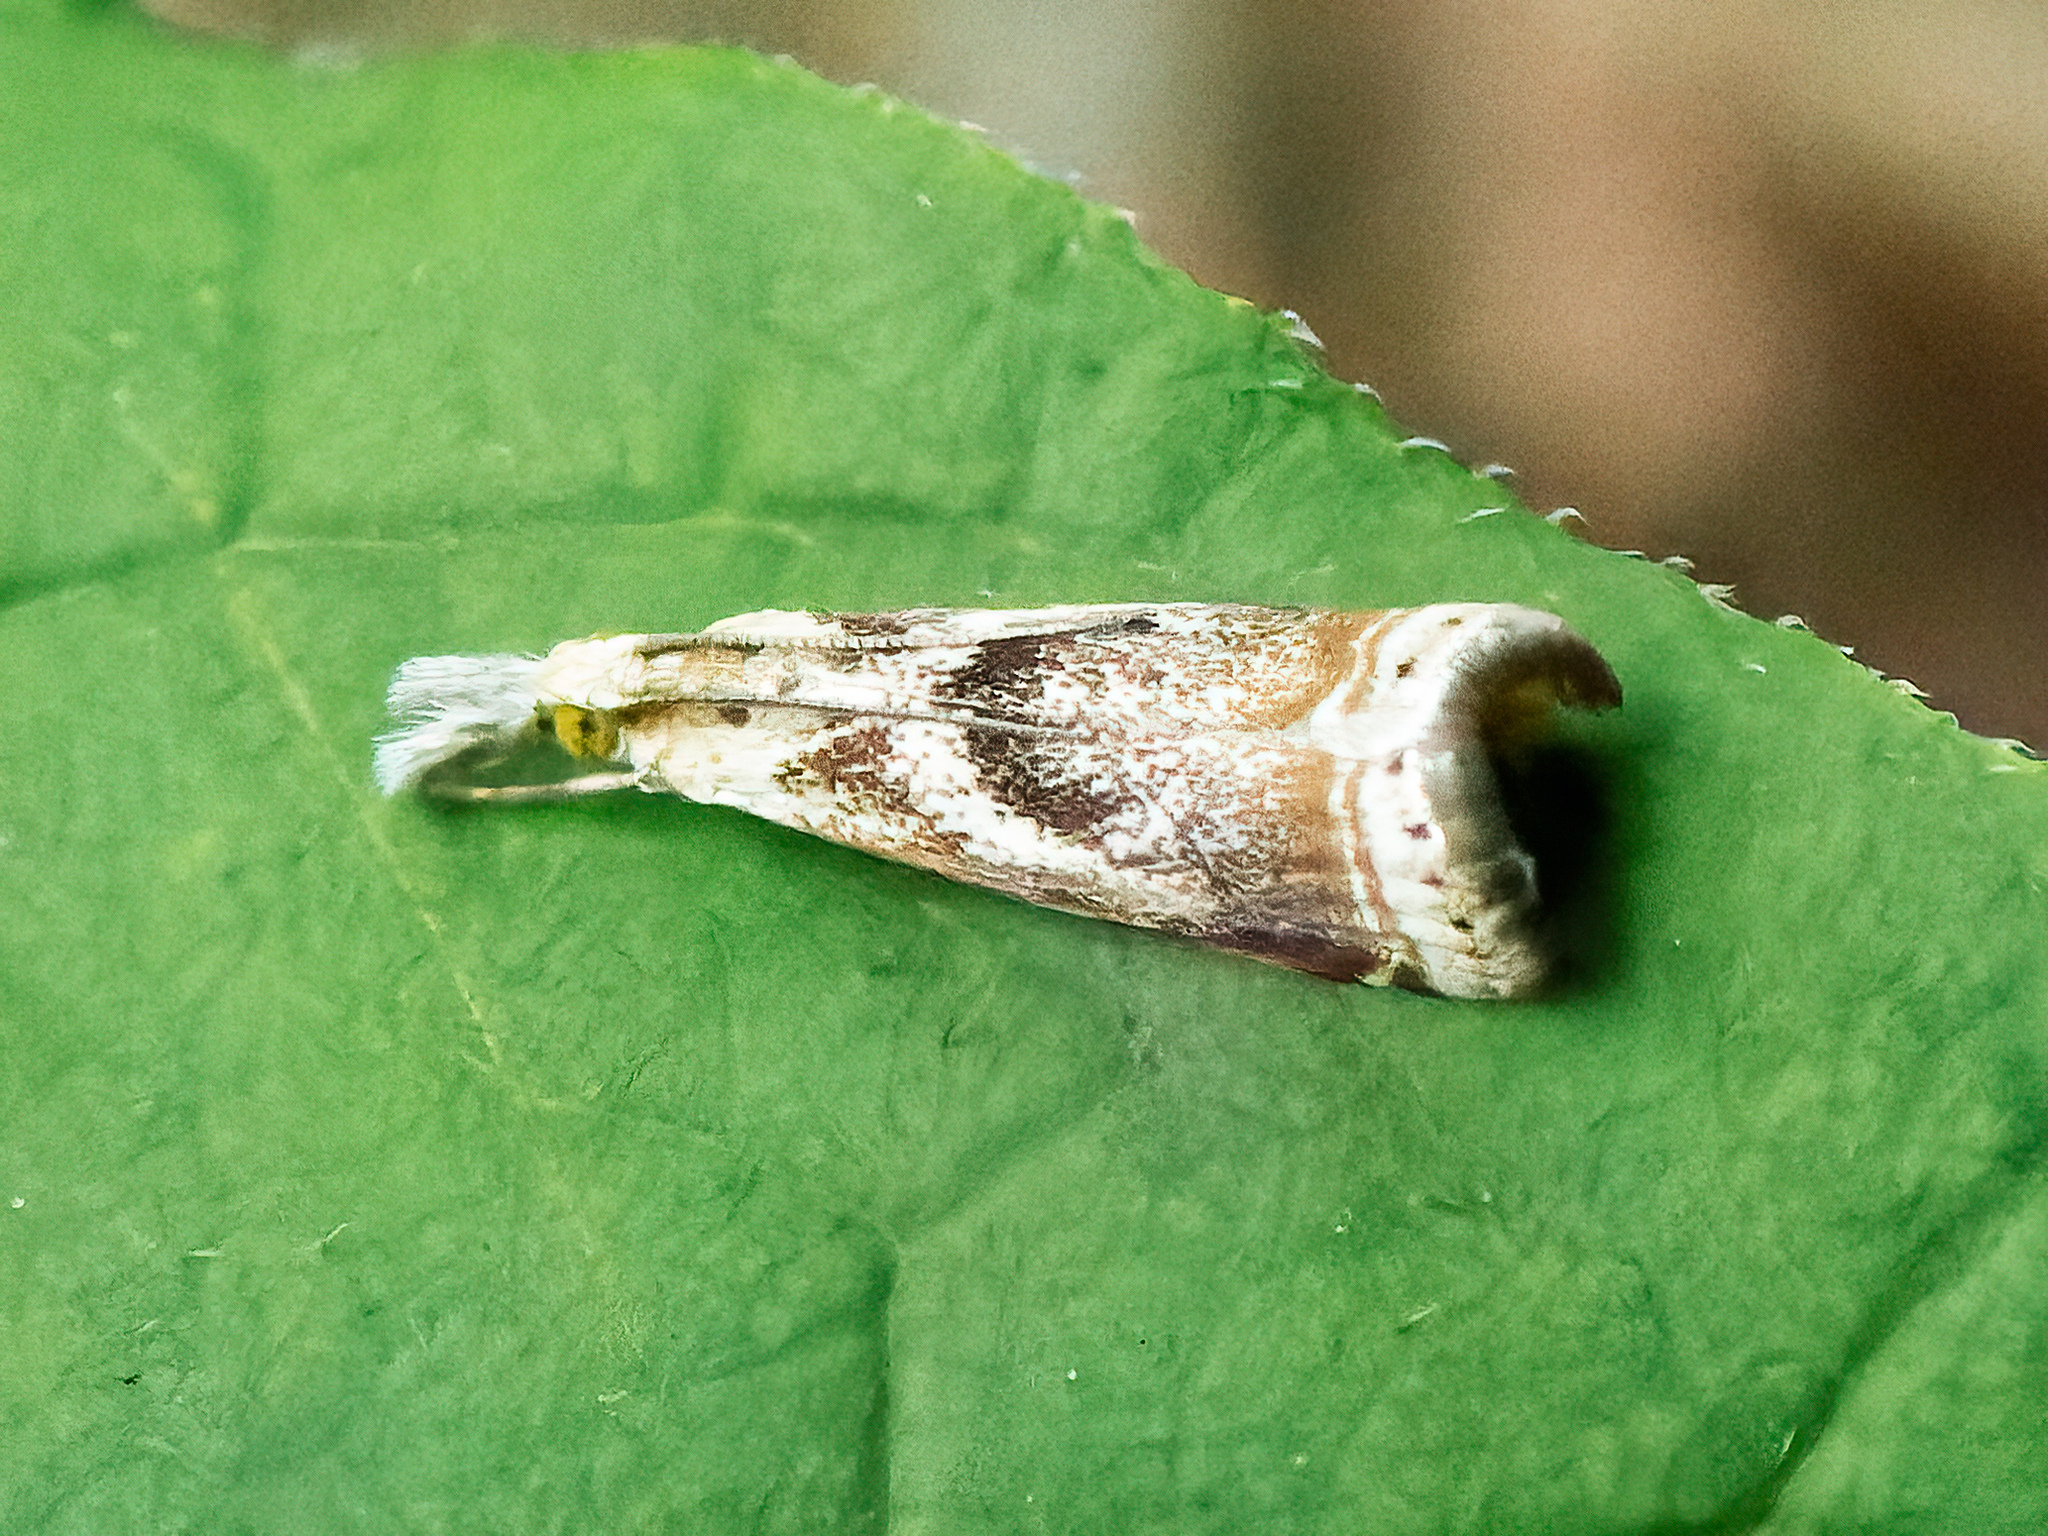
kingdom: Animalia
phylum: Arthropoda
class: Insecta
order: Lepidoptera
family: Crambidae
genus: Microcrambus
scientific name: Microcrambus elegans
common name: Elegant grass-veneer
